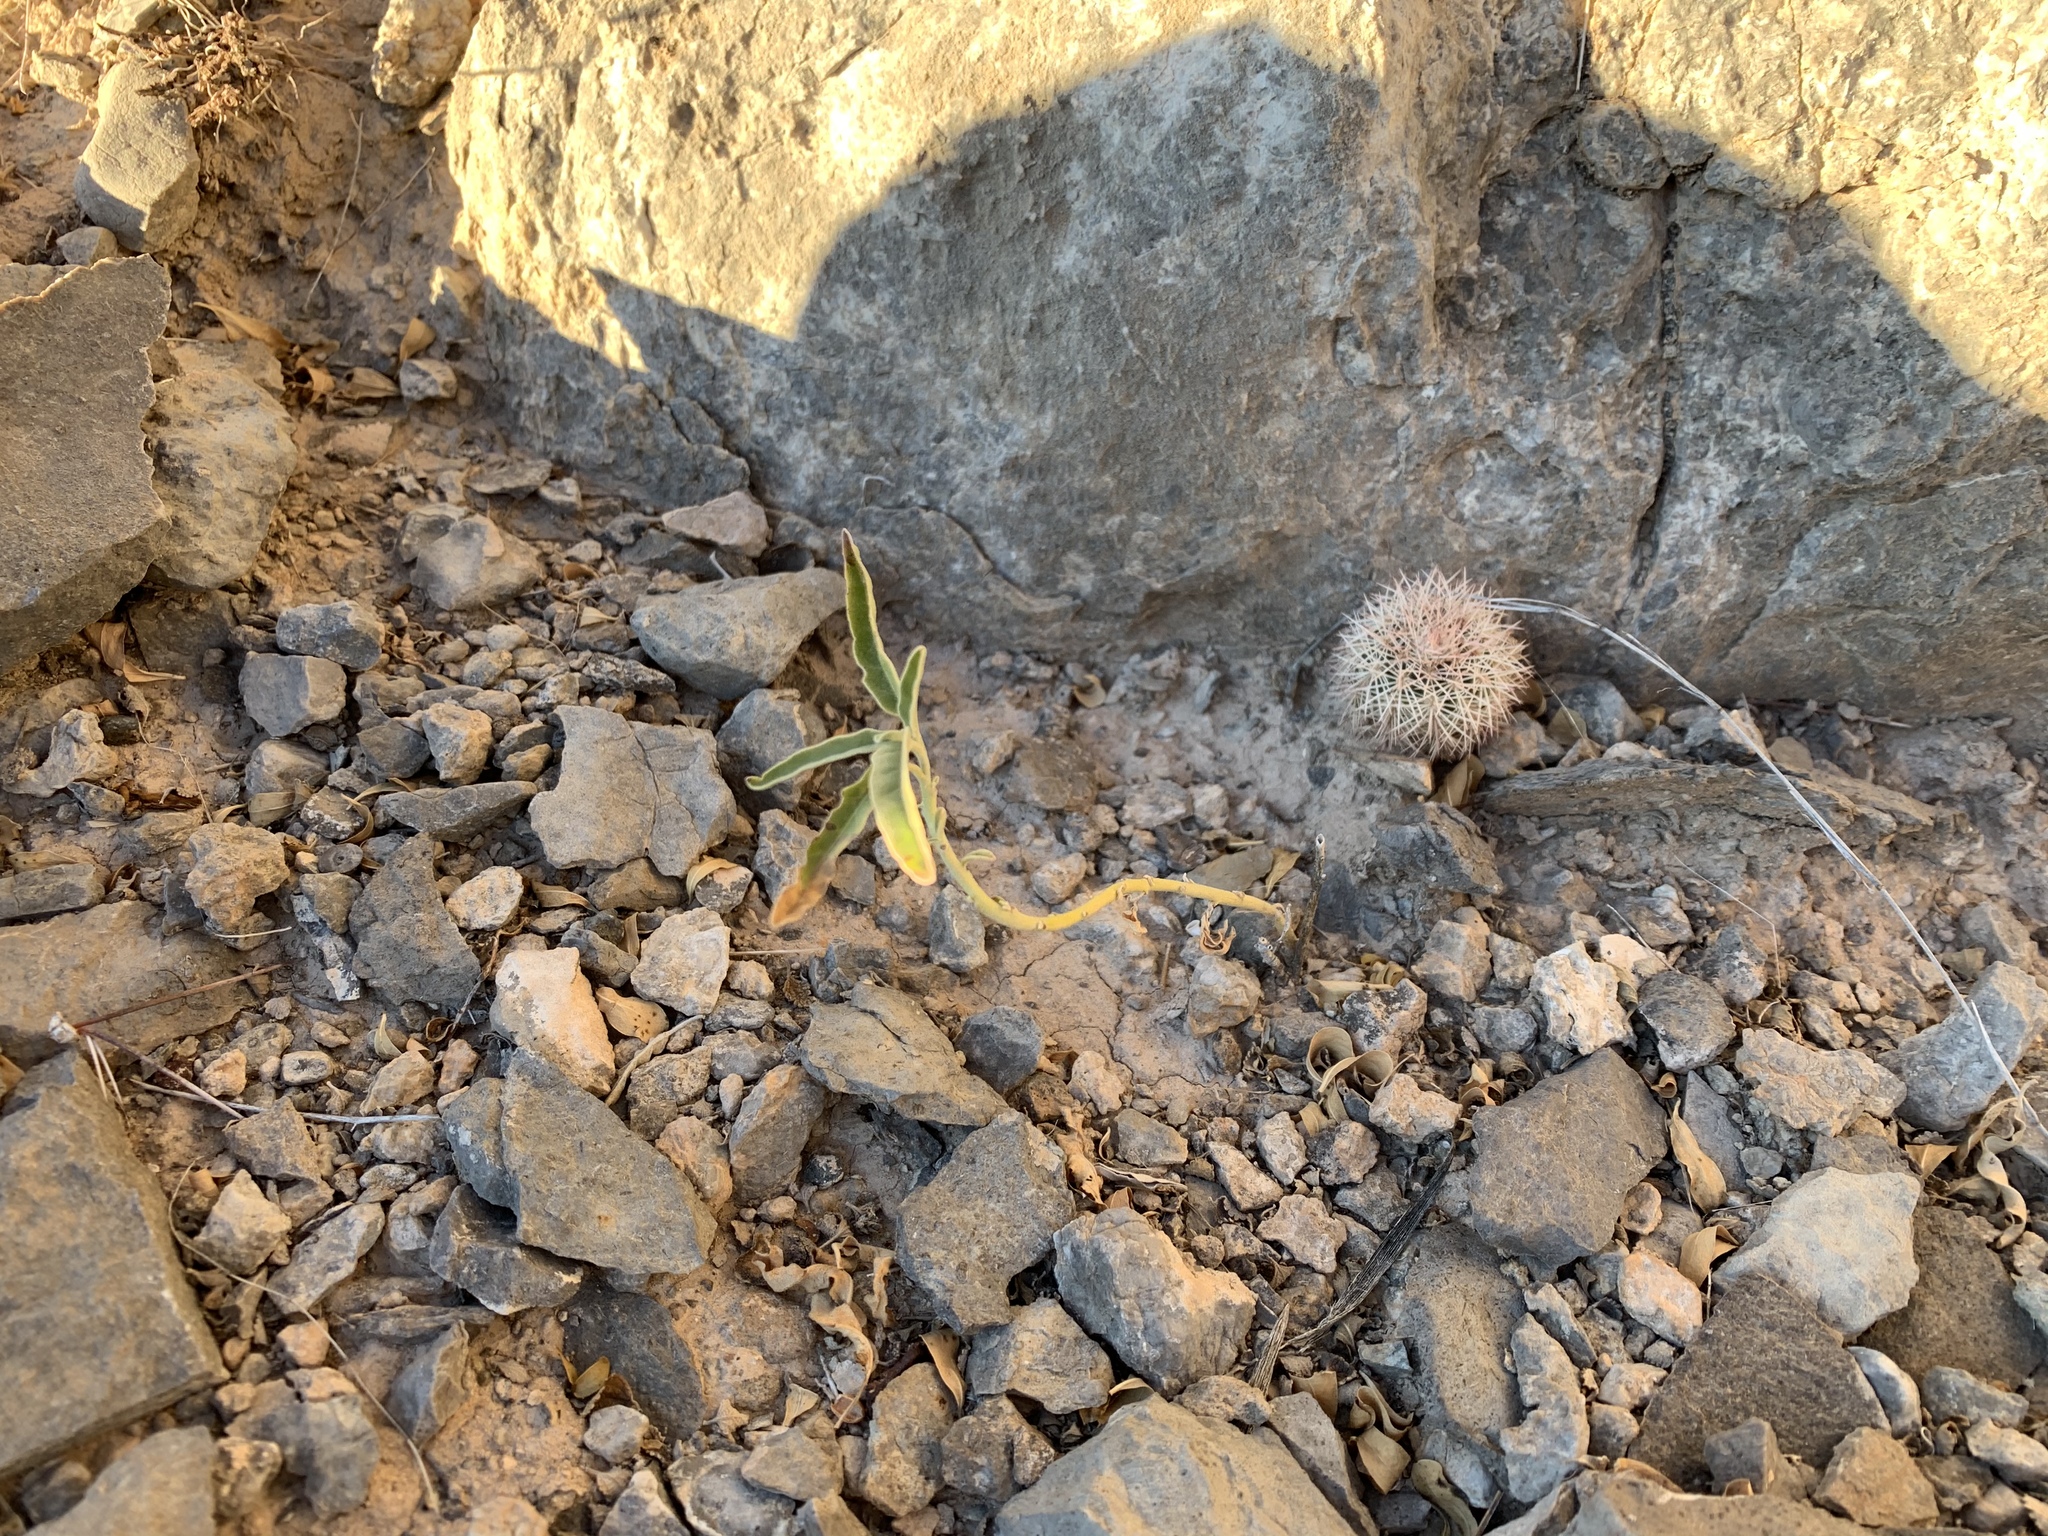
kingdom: Plantae
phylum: Tracheophyta
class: Magnoliopsida
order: Caryophyllales
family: Cactaceae
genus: Echinocereus
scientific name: Echinocereus dasyacanthus
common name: Spiny hedgehog cactus
